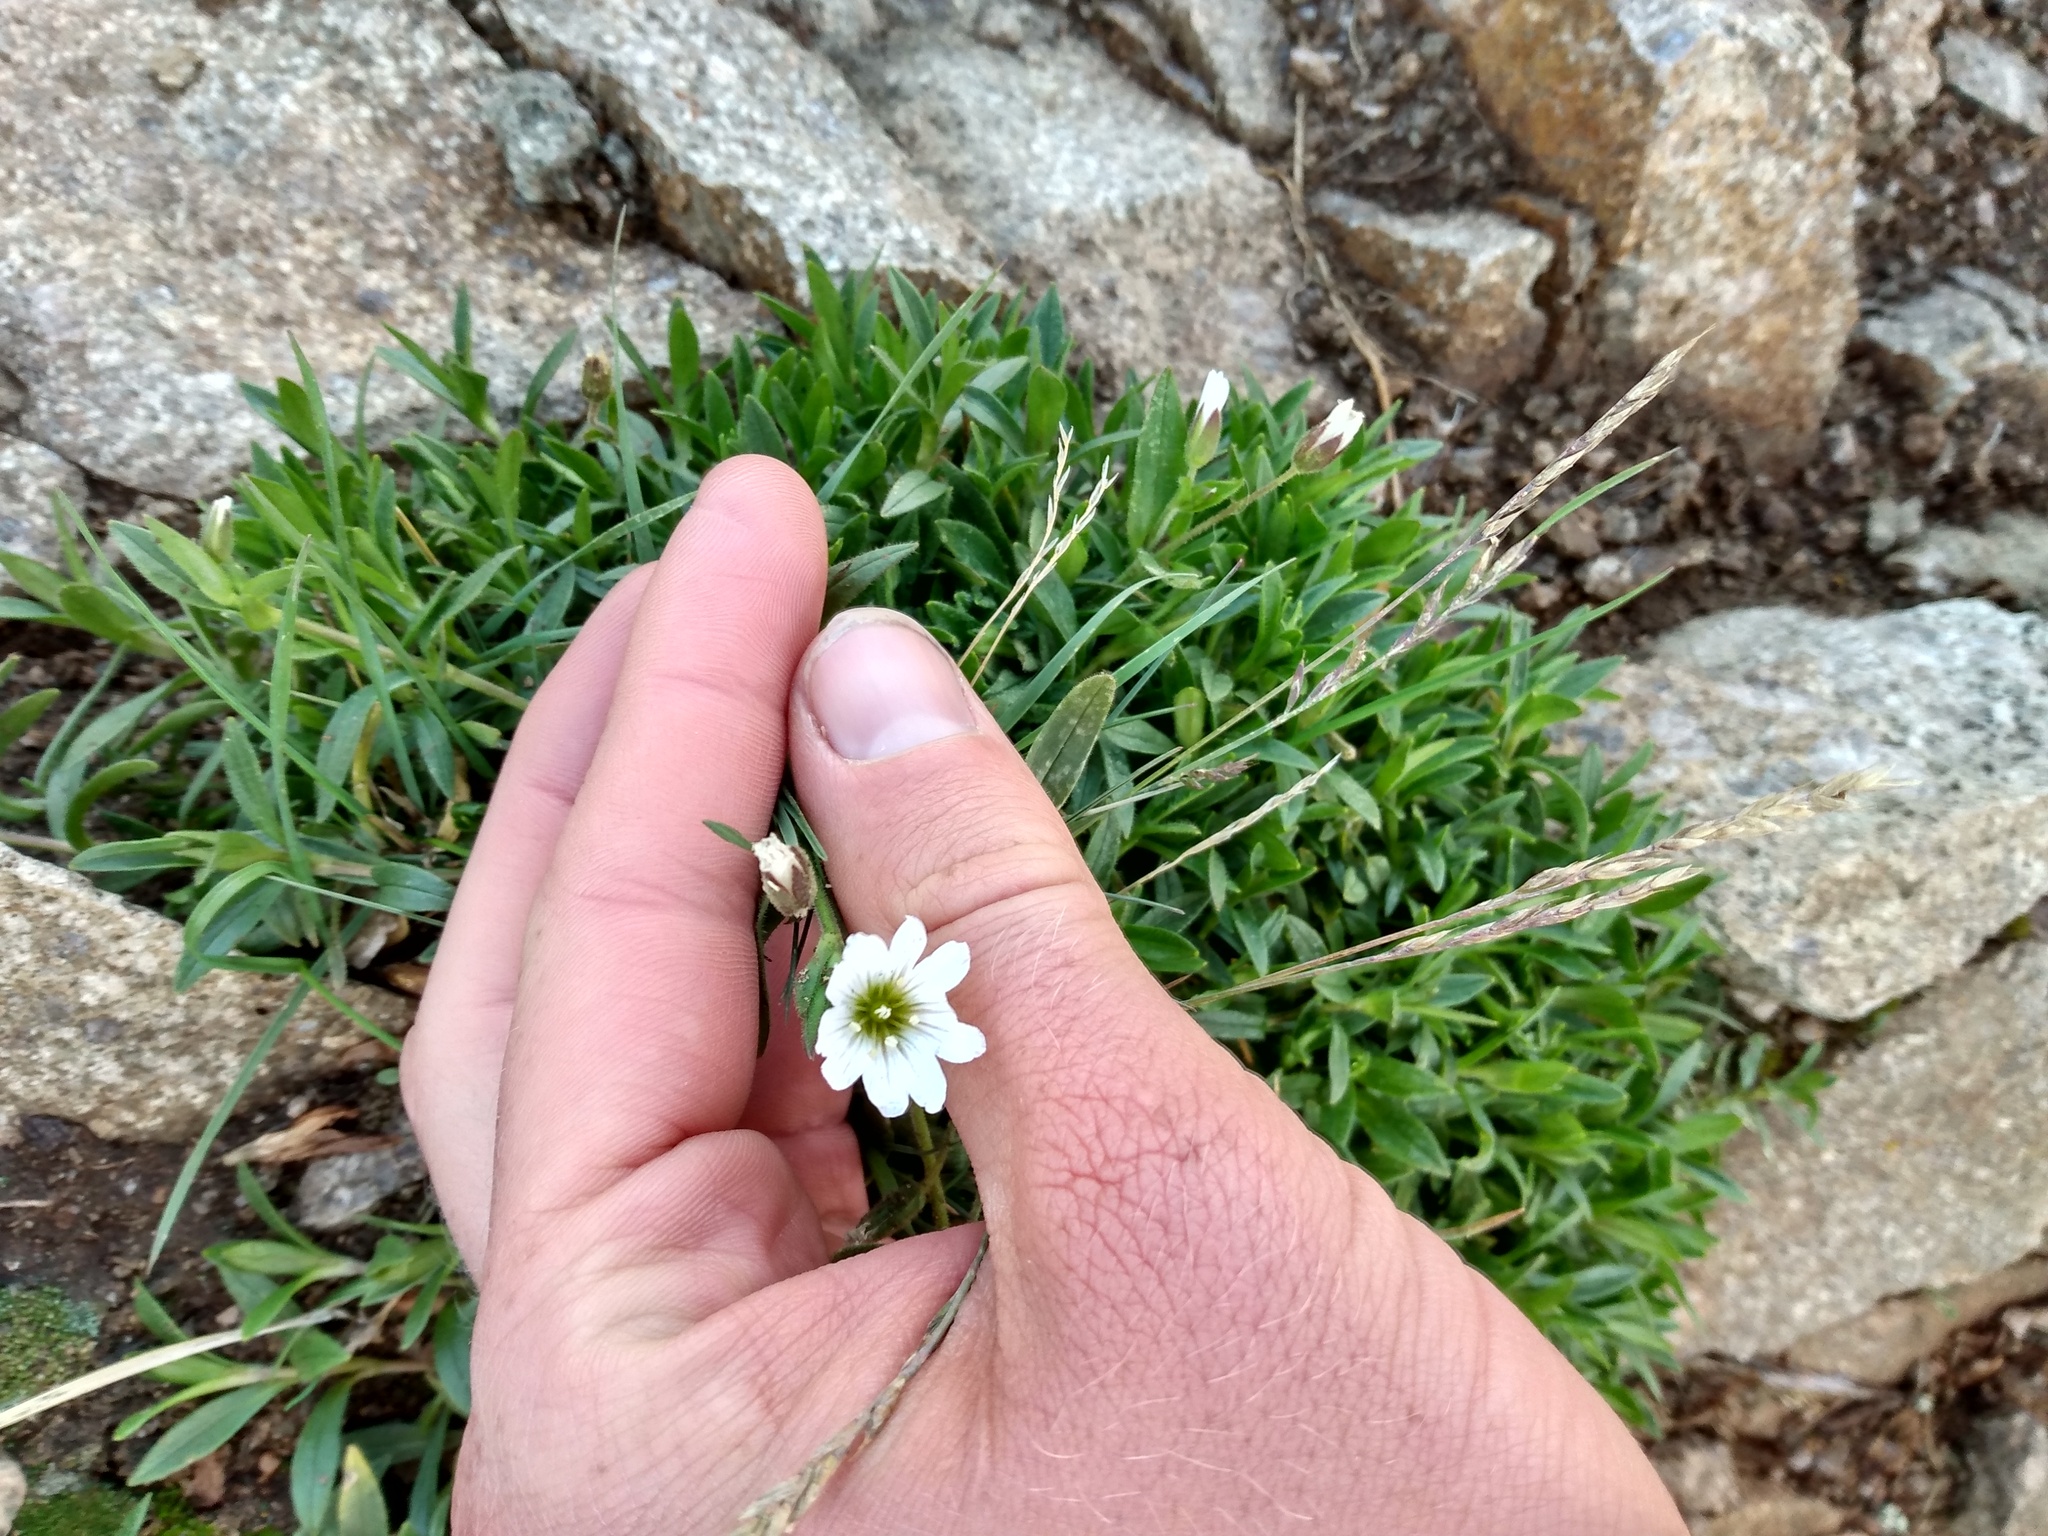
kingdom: Plantae
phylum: Tracheophyta
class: Magnoliopsida
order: Caryophyllales
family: Caryophyllaceae
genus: Cerastium
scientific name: Cerastium beeringianum
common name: Bering mouse-ear chickweed
